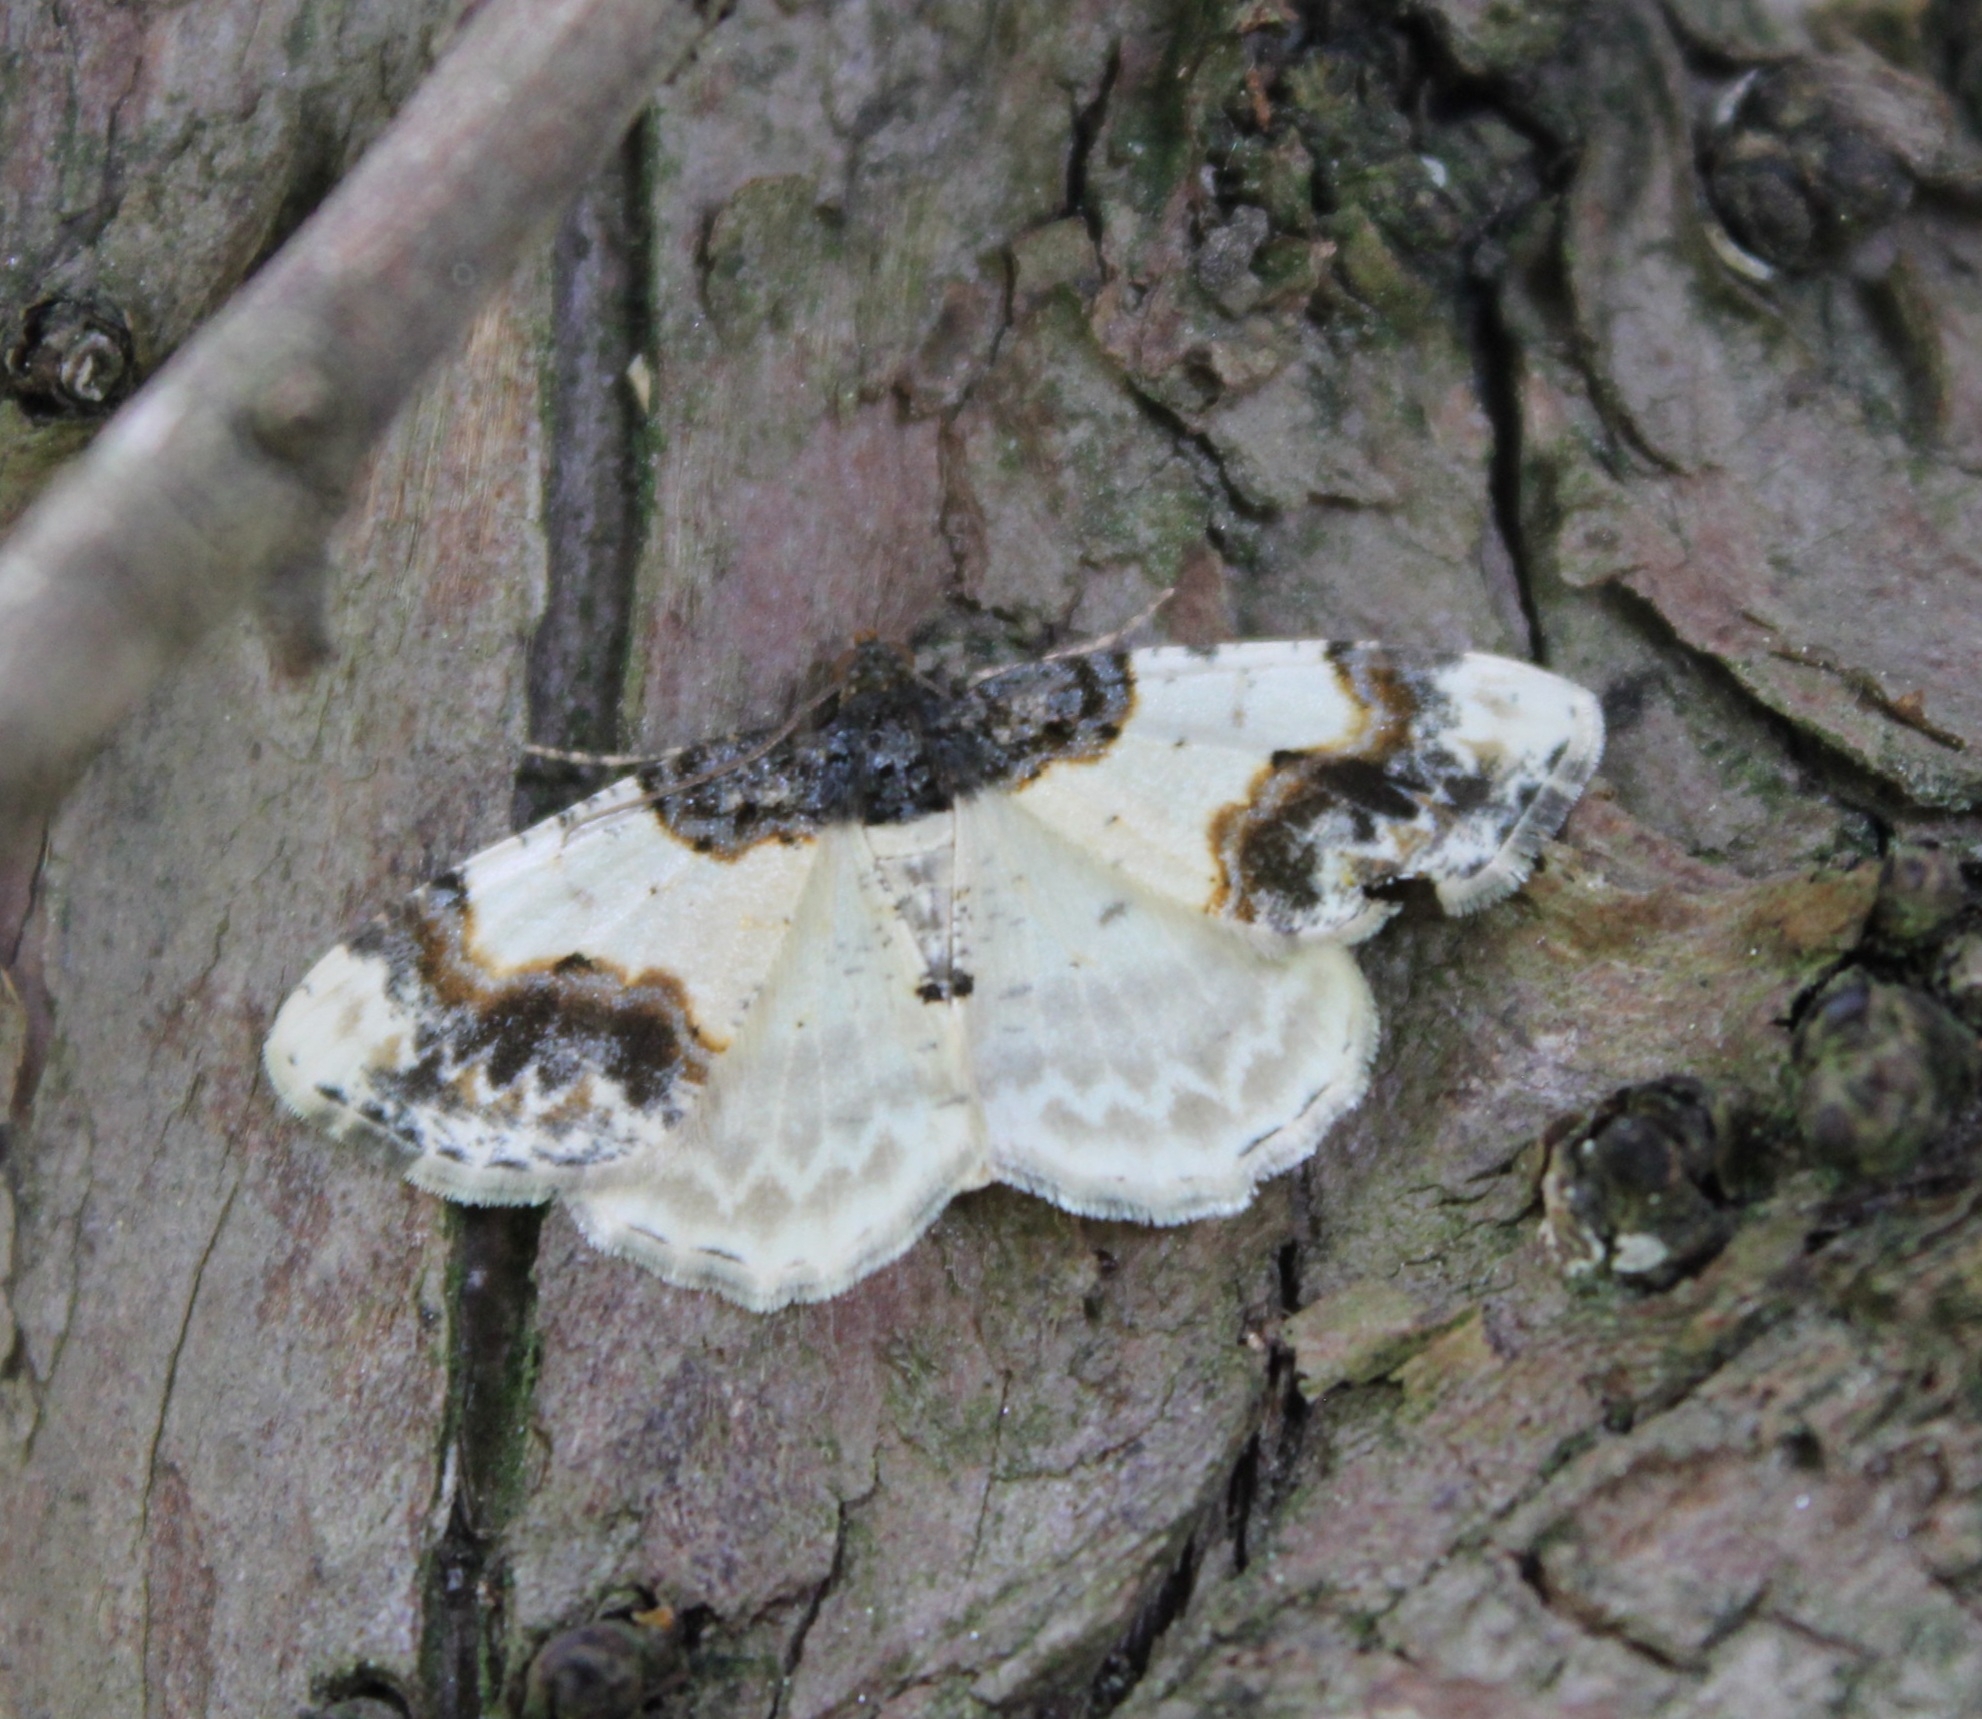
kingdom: Animalia
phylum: Arthropoda
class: Insecta
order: Lepidoptera
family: Geometridae
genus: Ligdia
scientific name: Ligdia adustata
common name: Scorched carpet
